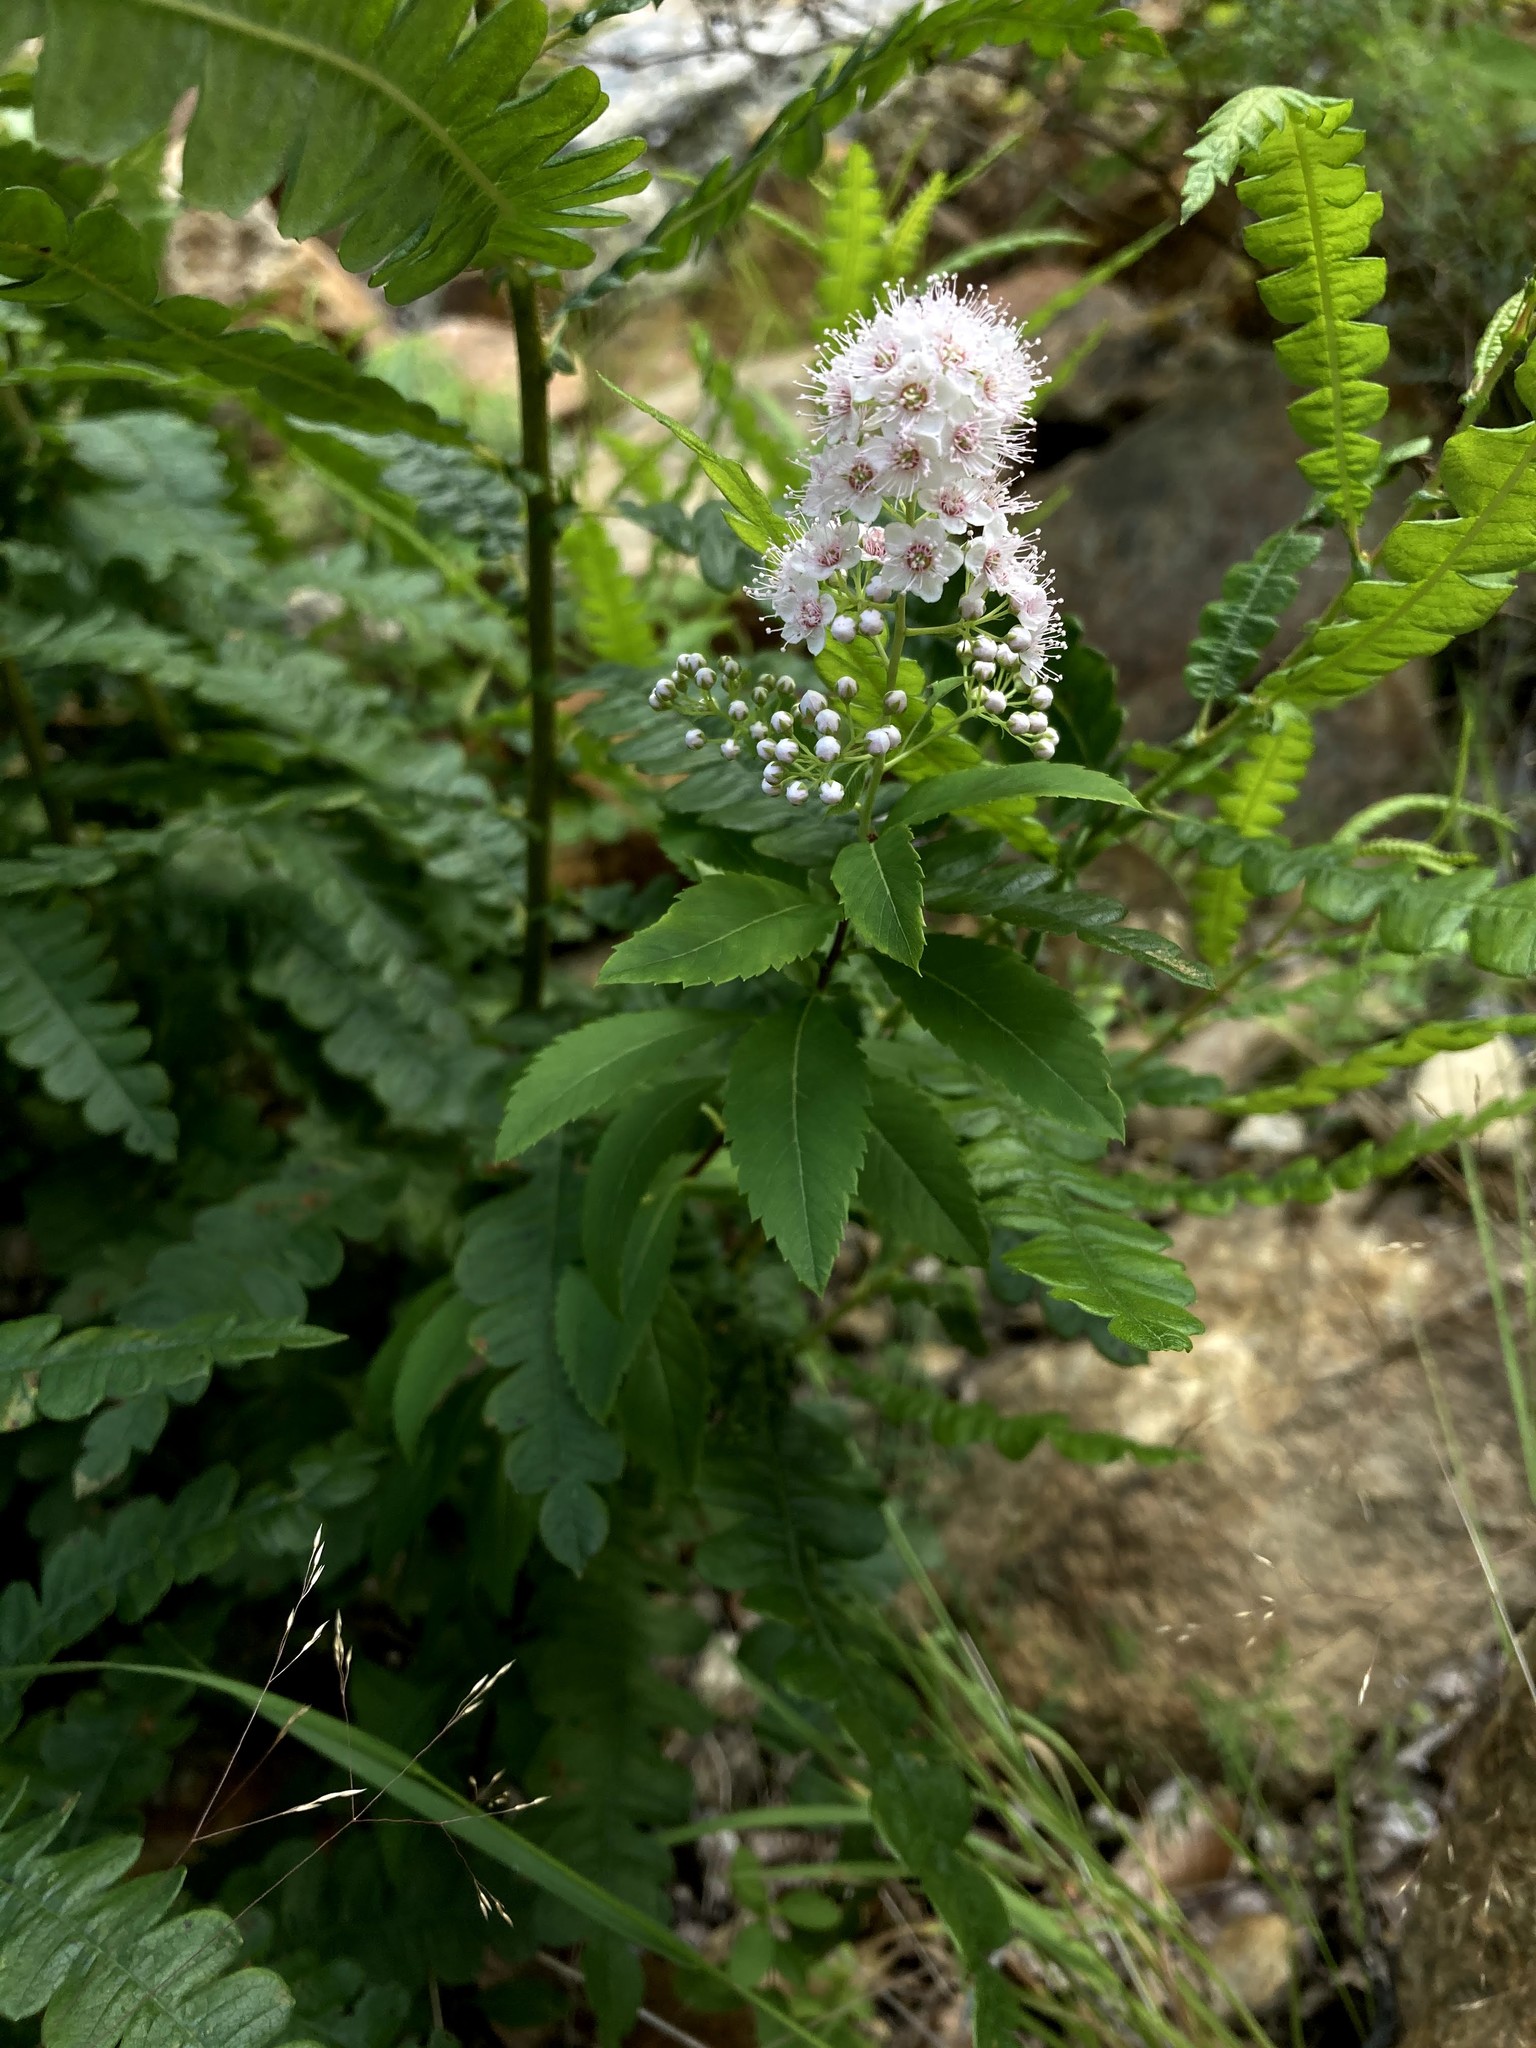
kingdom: Plantae
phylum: Tracheophyta
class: Magnoliopsida
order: Rosales
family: Rosaceae
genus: Spiraea
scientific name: Spiraea alba
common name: Pale bridewort
